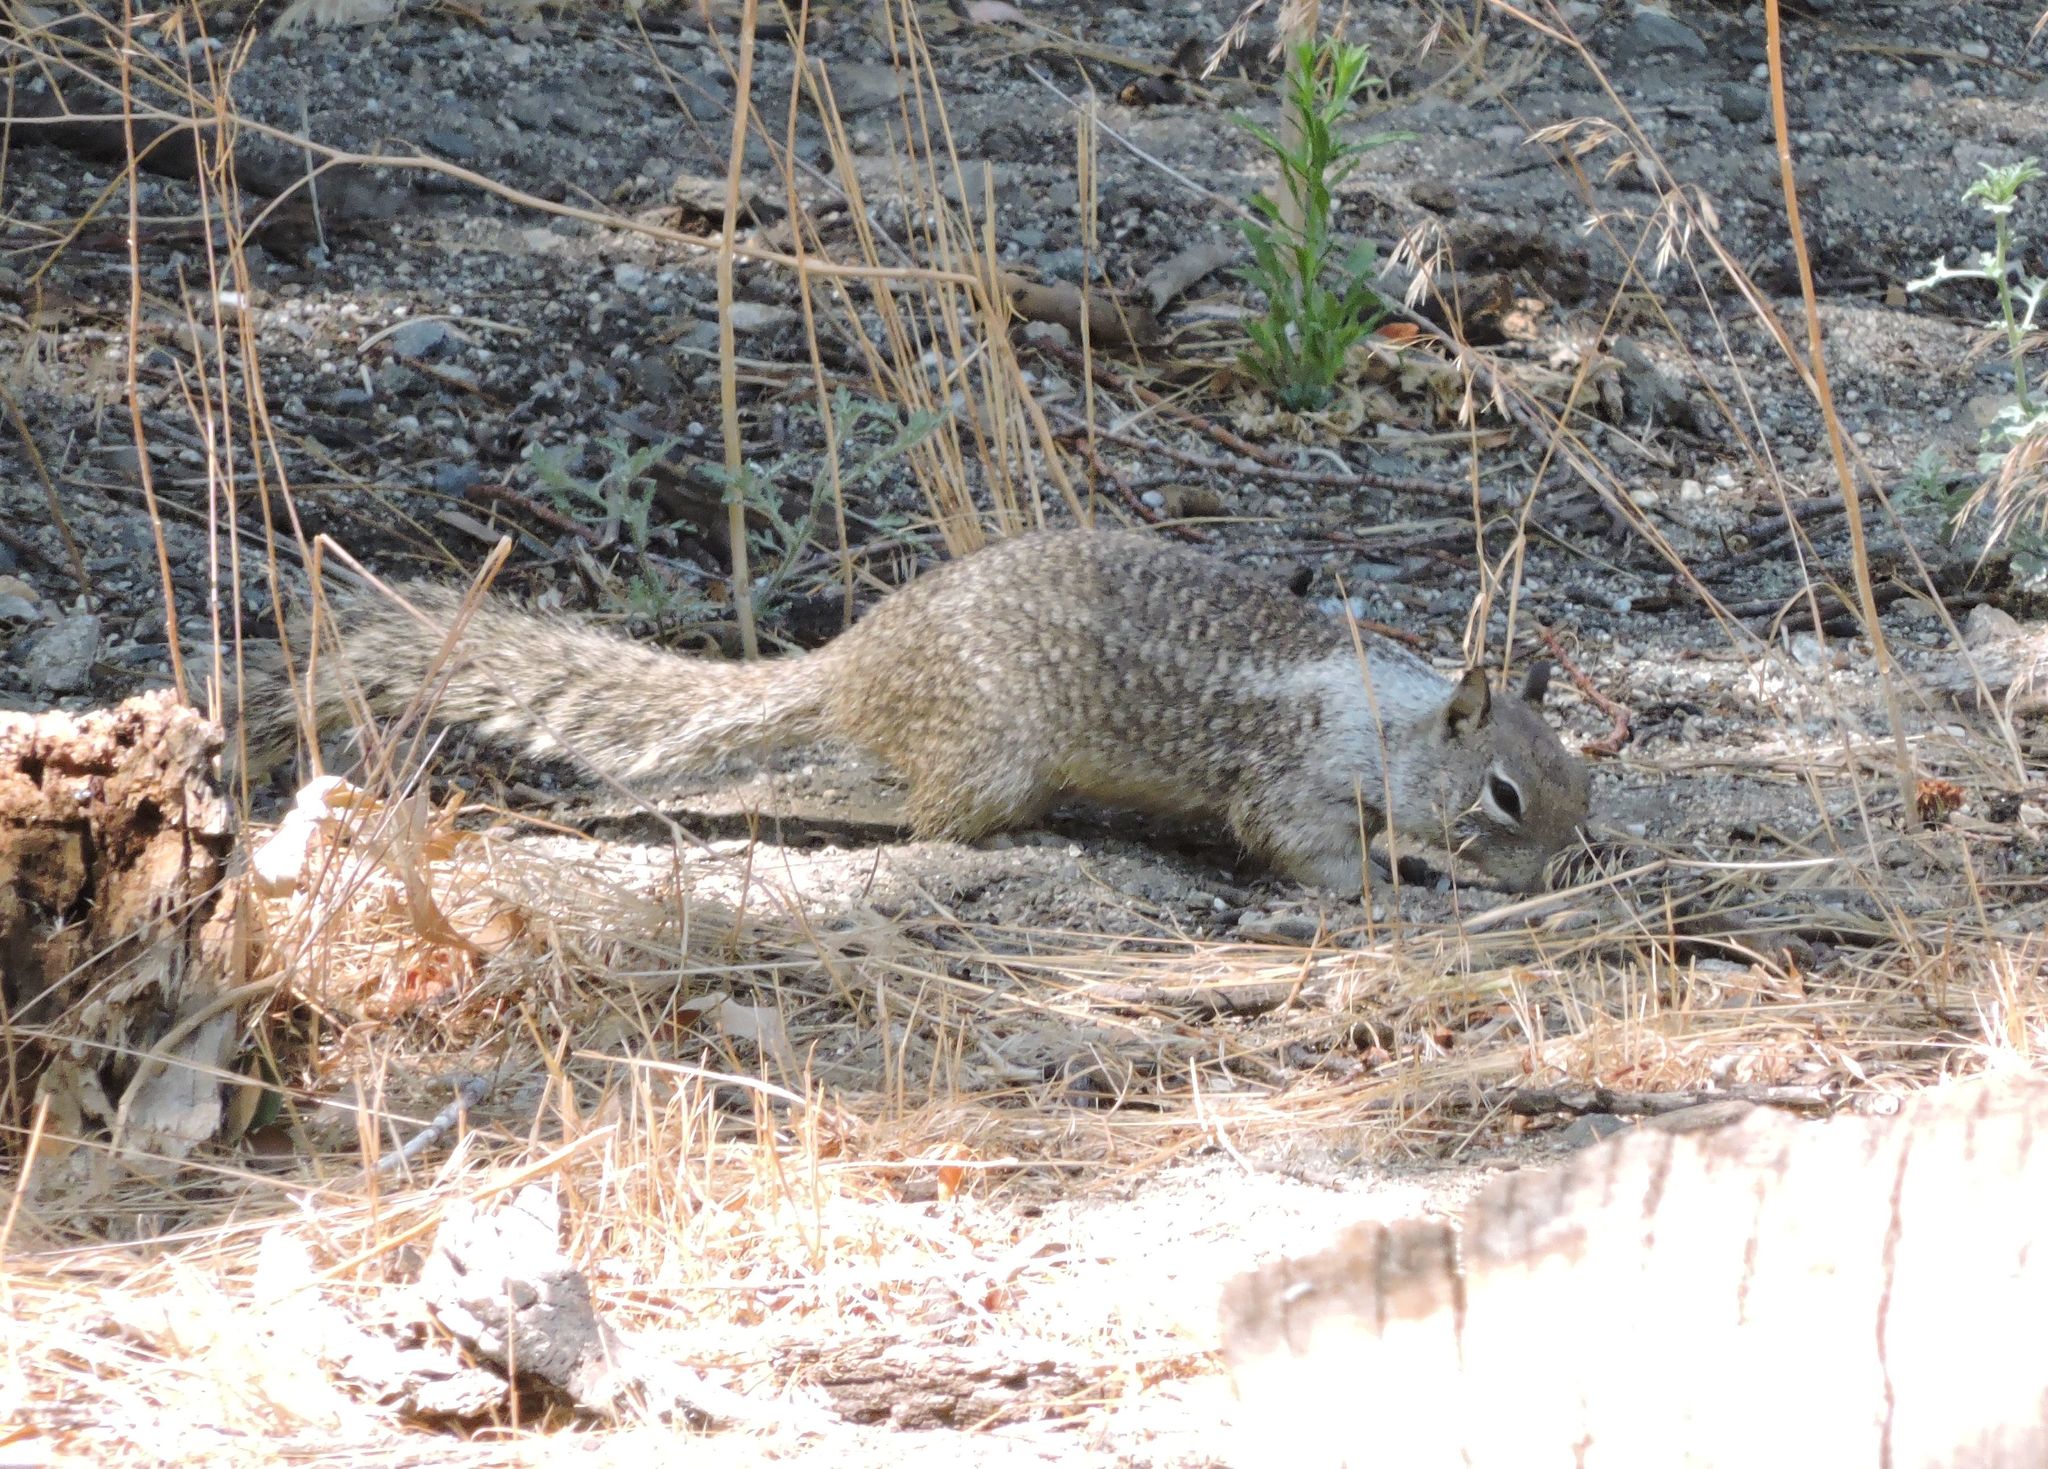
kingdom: Animalia
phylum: Chordata
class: Mammalia
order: Rodentia
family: Sciuridae
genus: Otospermophilus
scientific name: Otospermophilus beecheyi
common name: California ground squirrel
